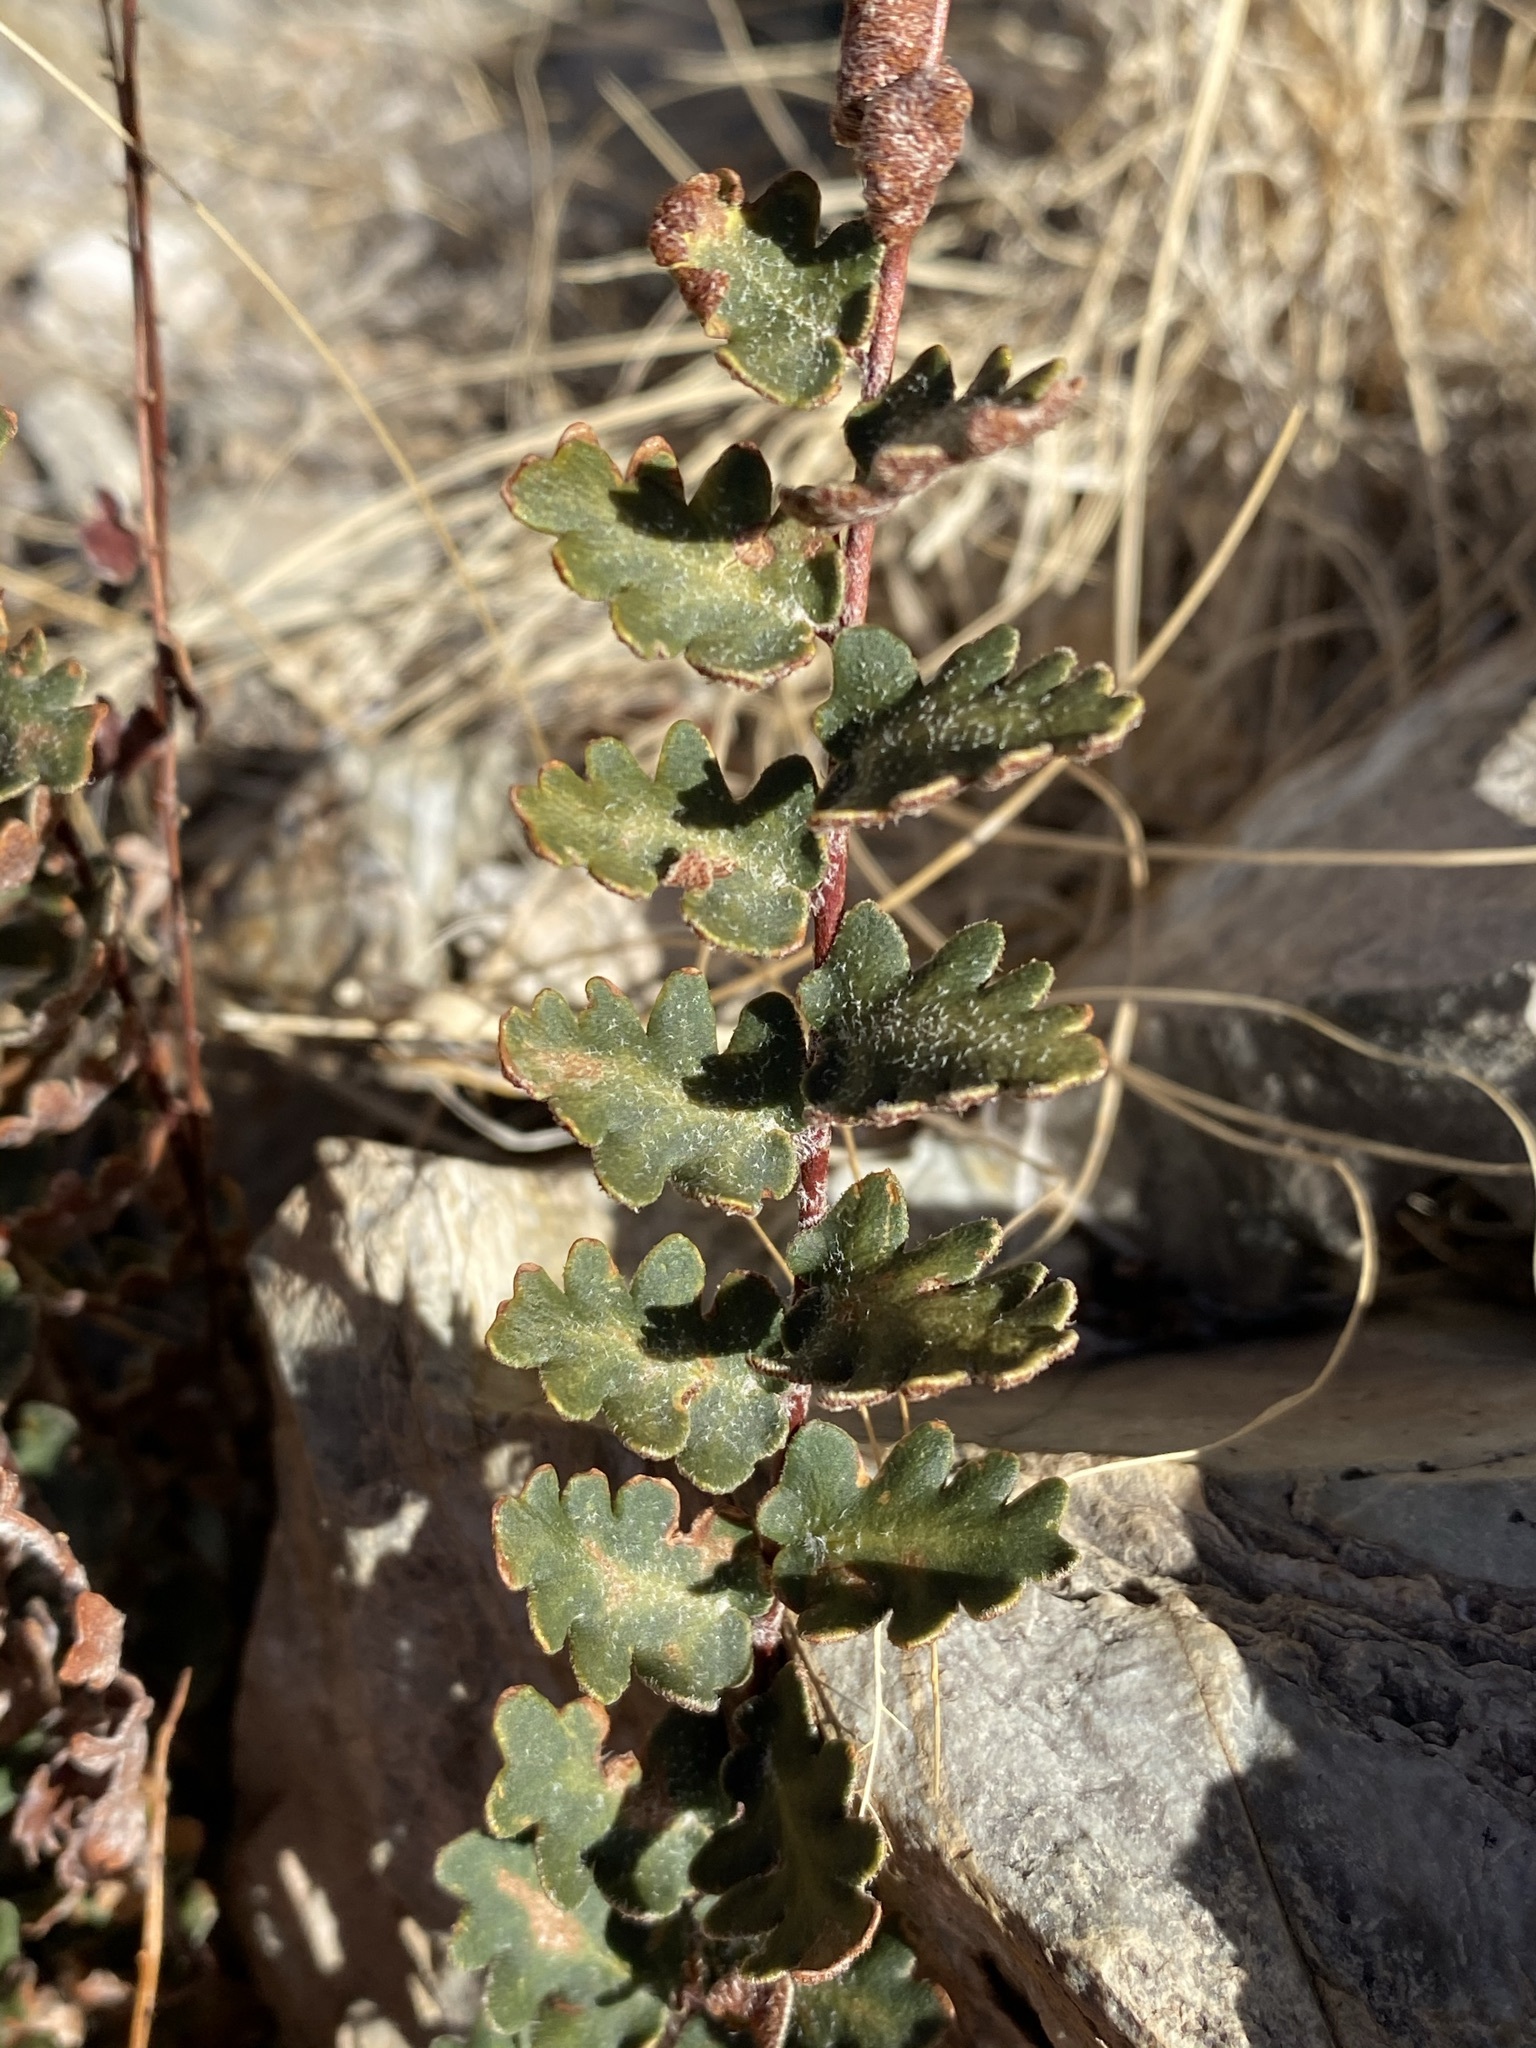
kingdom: Plantae
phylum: Tracheophyta
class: Polypodiopsida
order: Polypodiales
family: Pteridaceae
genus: Astrolepis
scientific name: Astrolepis sinuata
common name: Wavy scaly cloakfern
